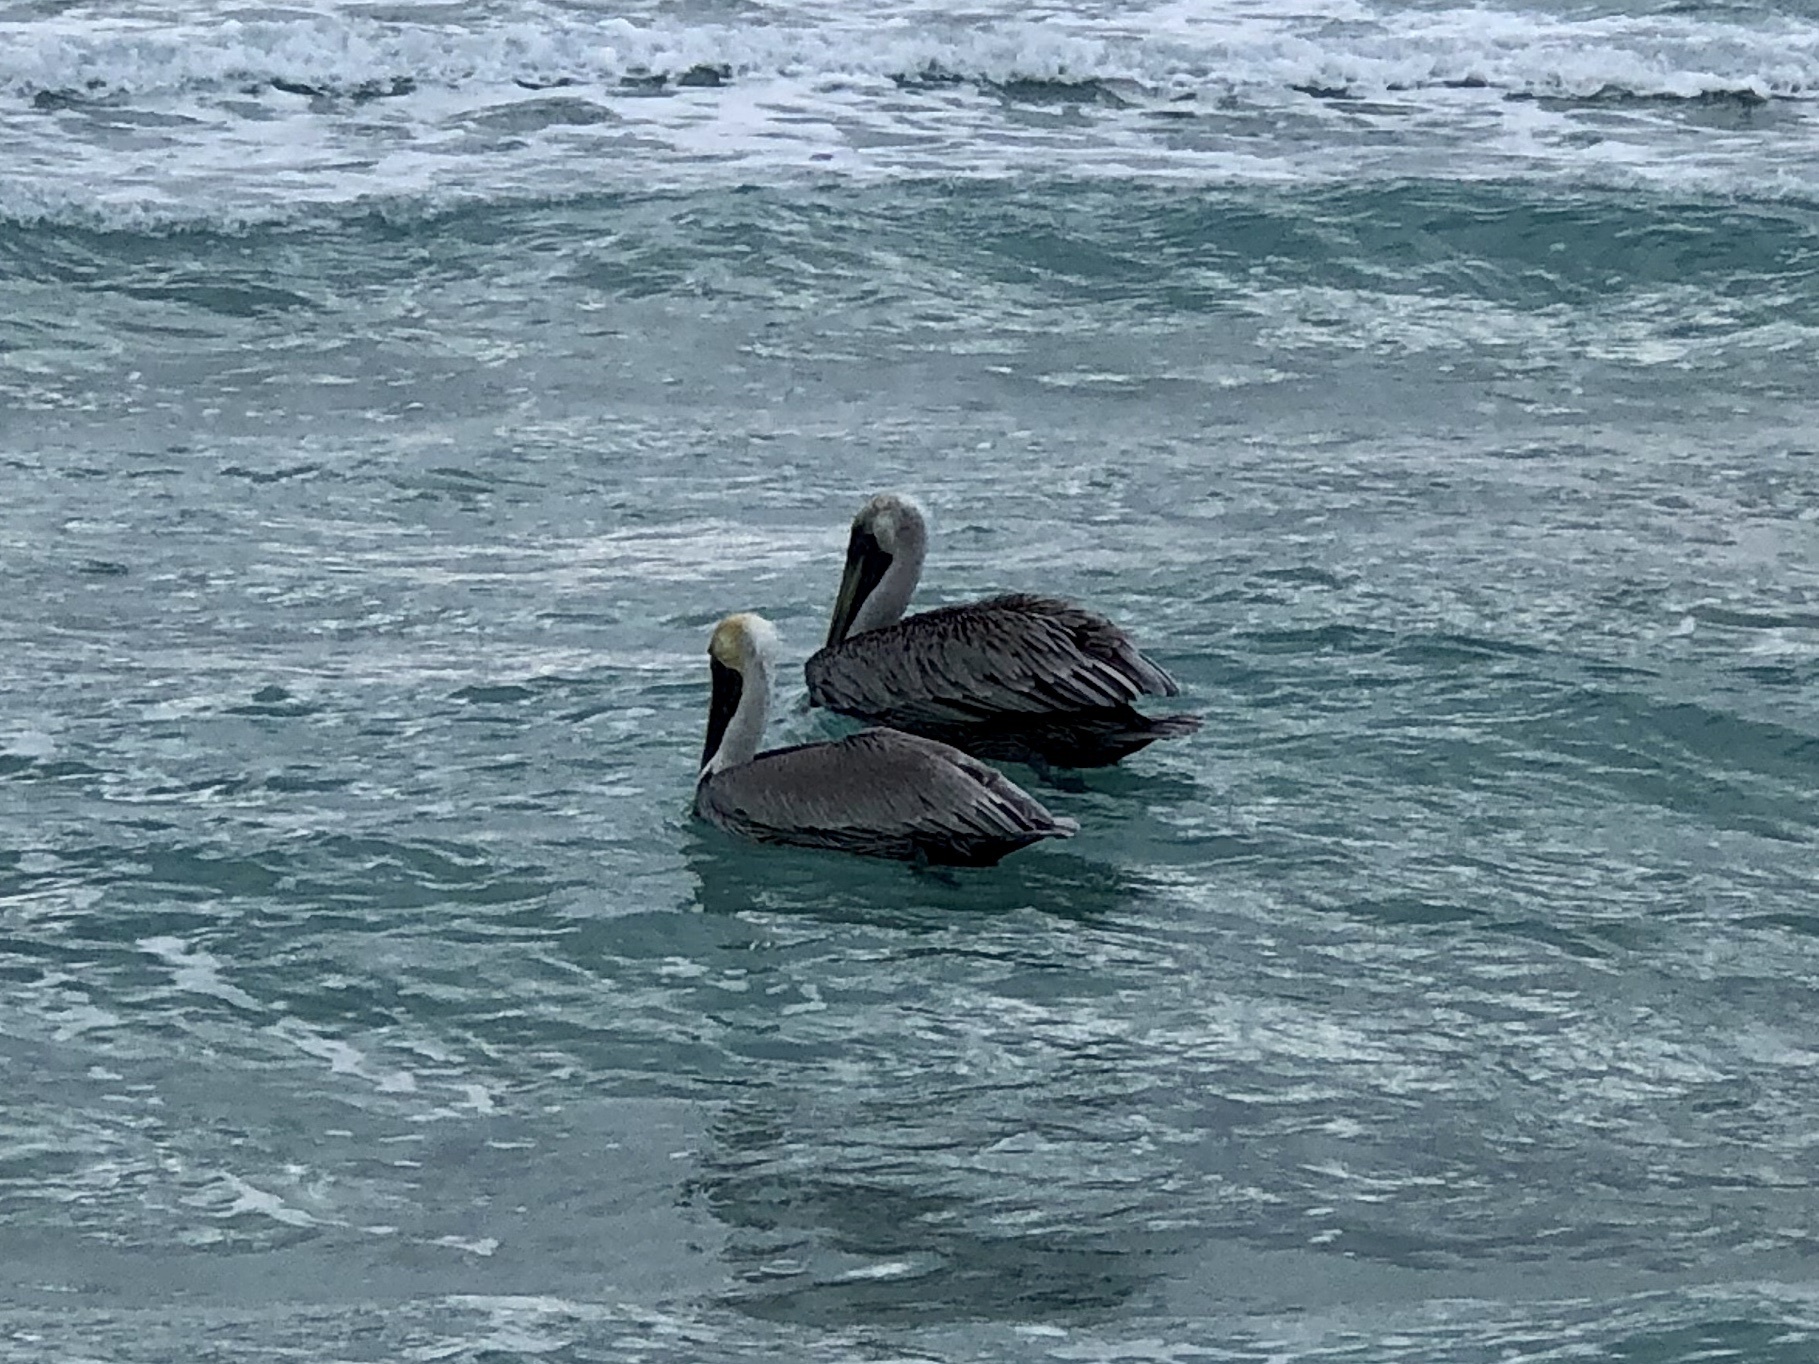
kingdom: Animalia
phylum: Chordata
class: Aves
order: Pelecaniformes
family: Pelecanidae
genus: Pelecanus
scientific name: Pelecanus occidentalis
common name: Brown pelican
